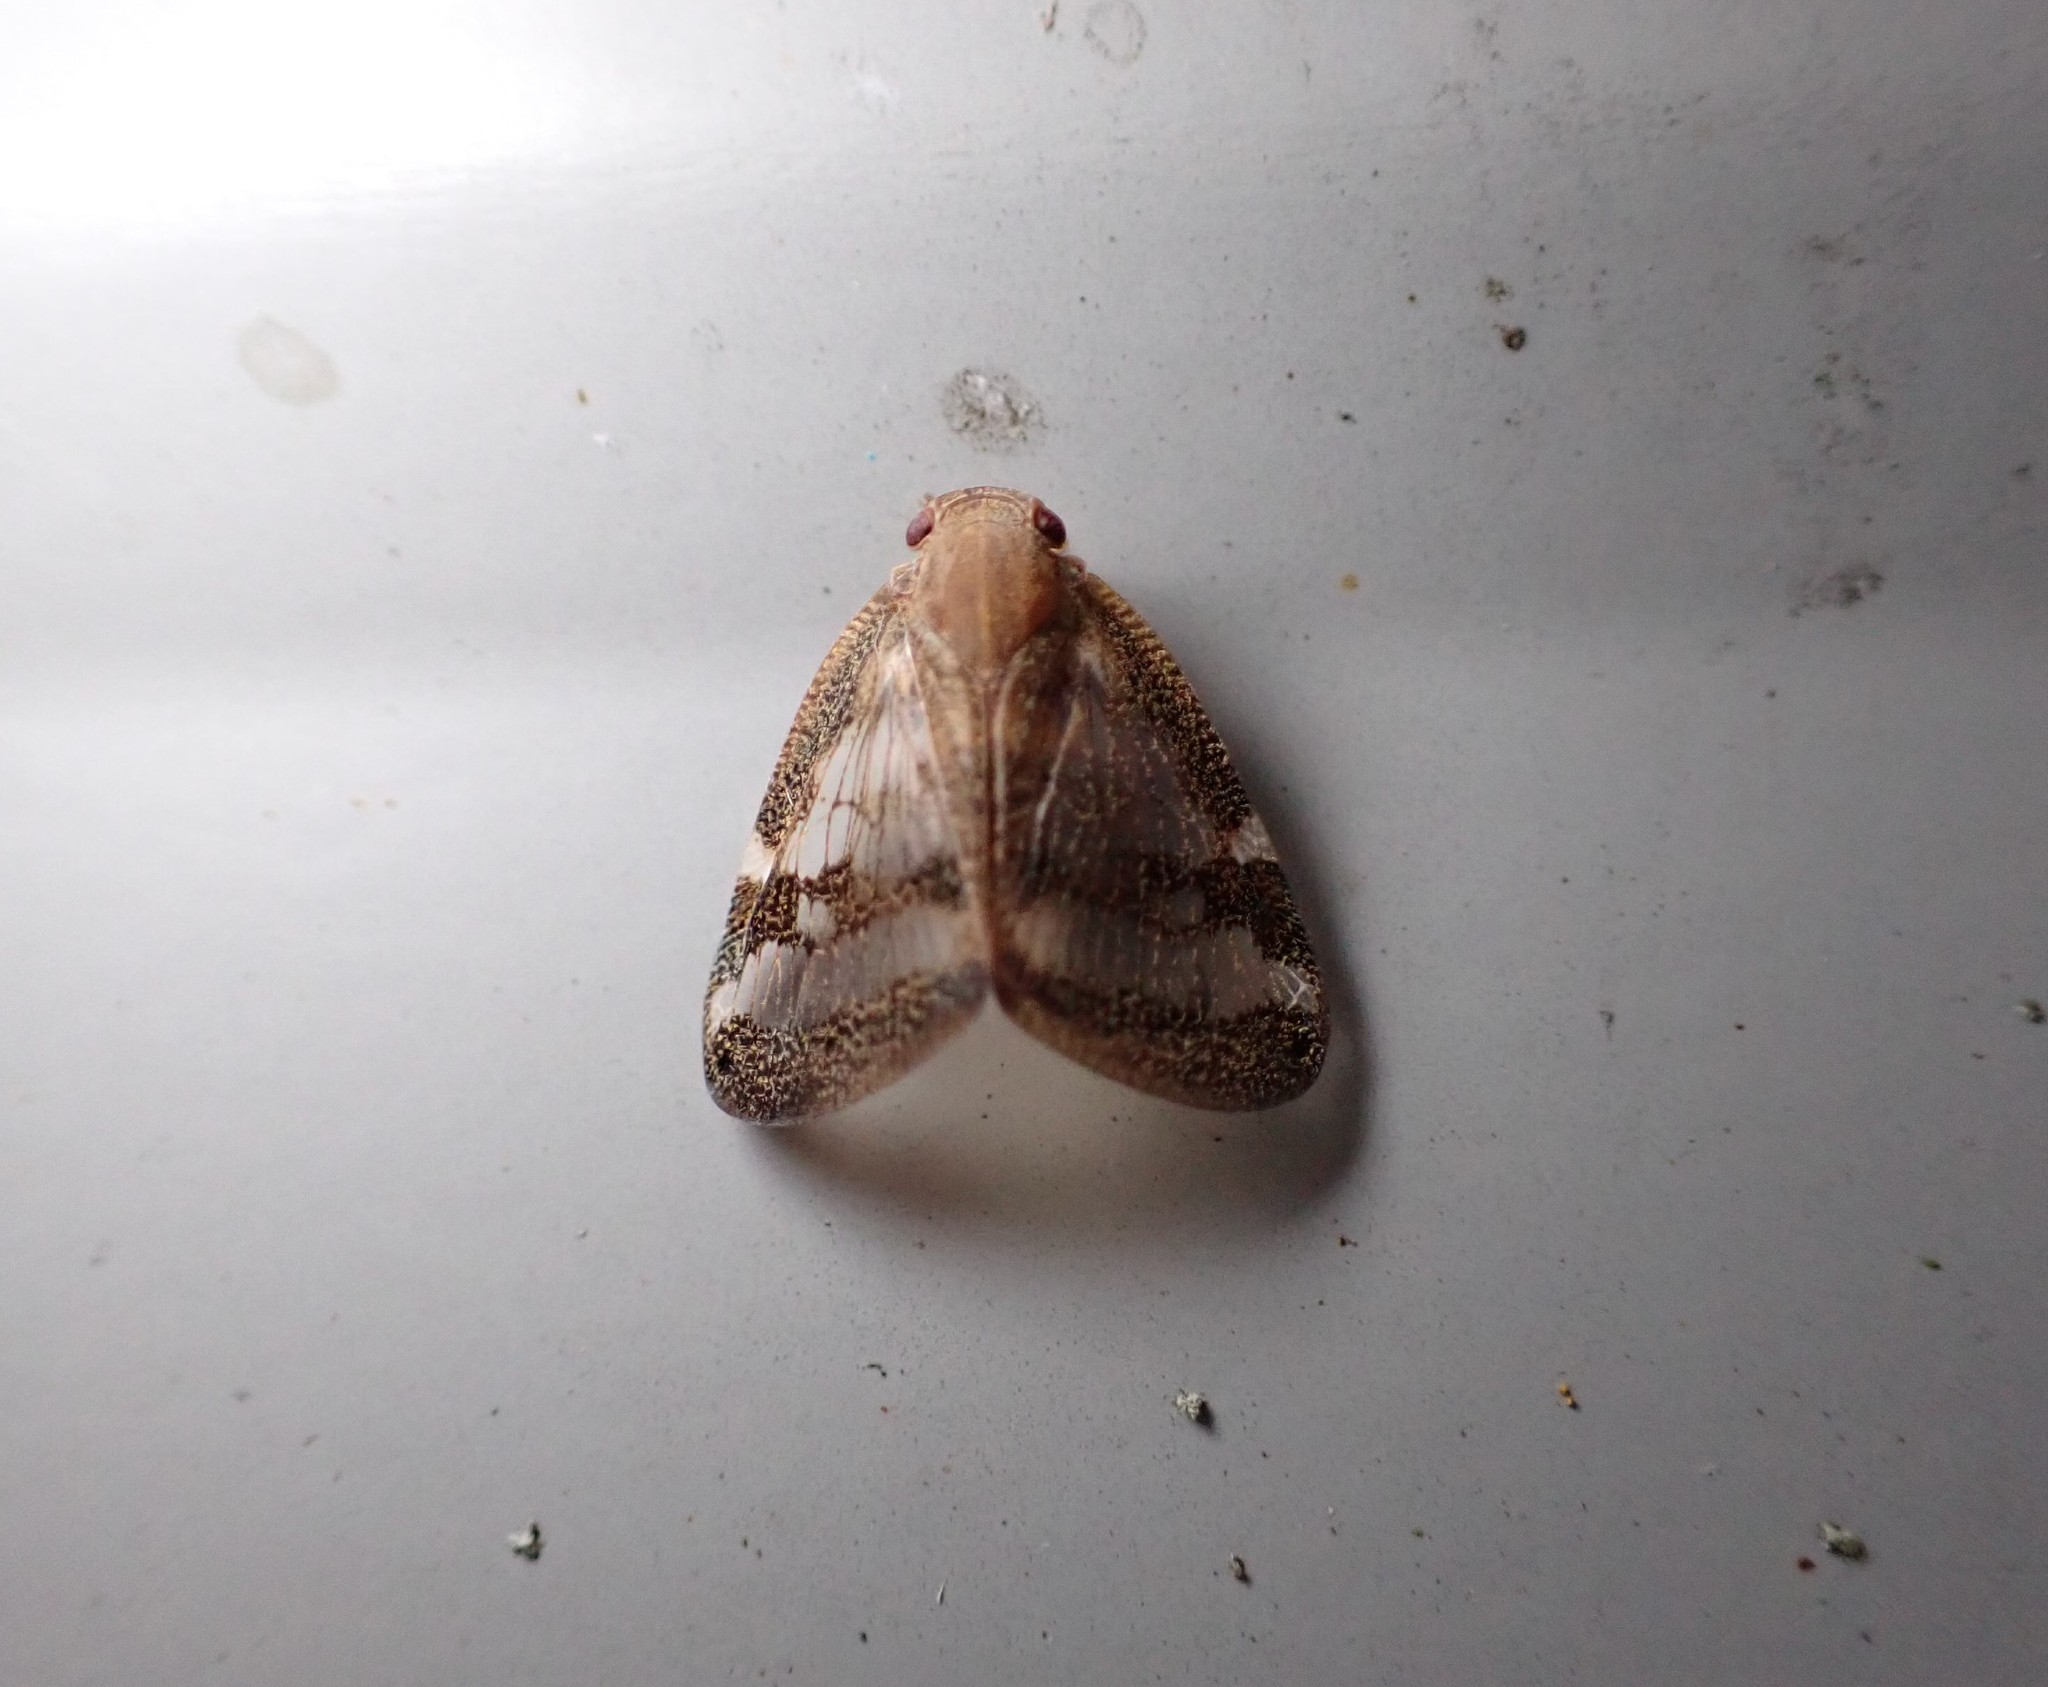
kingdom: Animalia
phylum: Arthropoda
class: Insecta
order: Hemiptera
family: Ricaniidae
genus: Scolypopa
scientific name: Scolypopa australis
